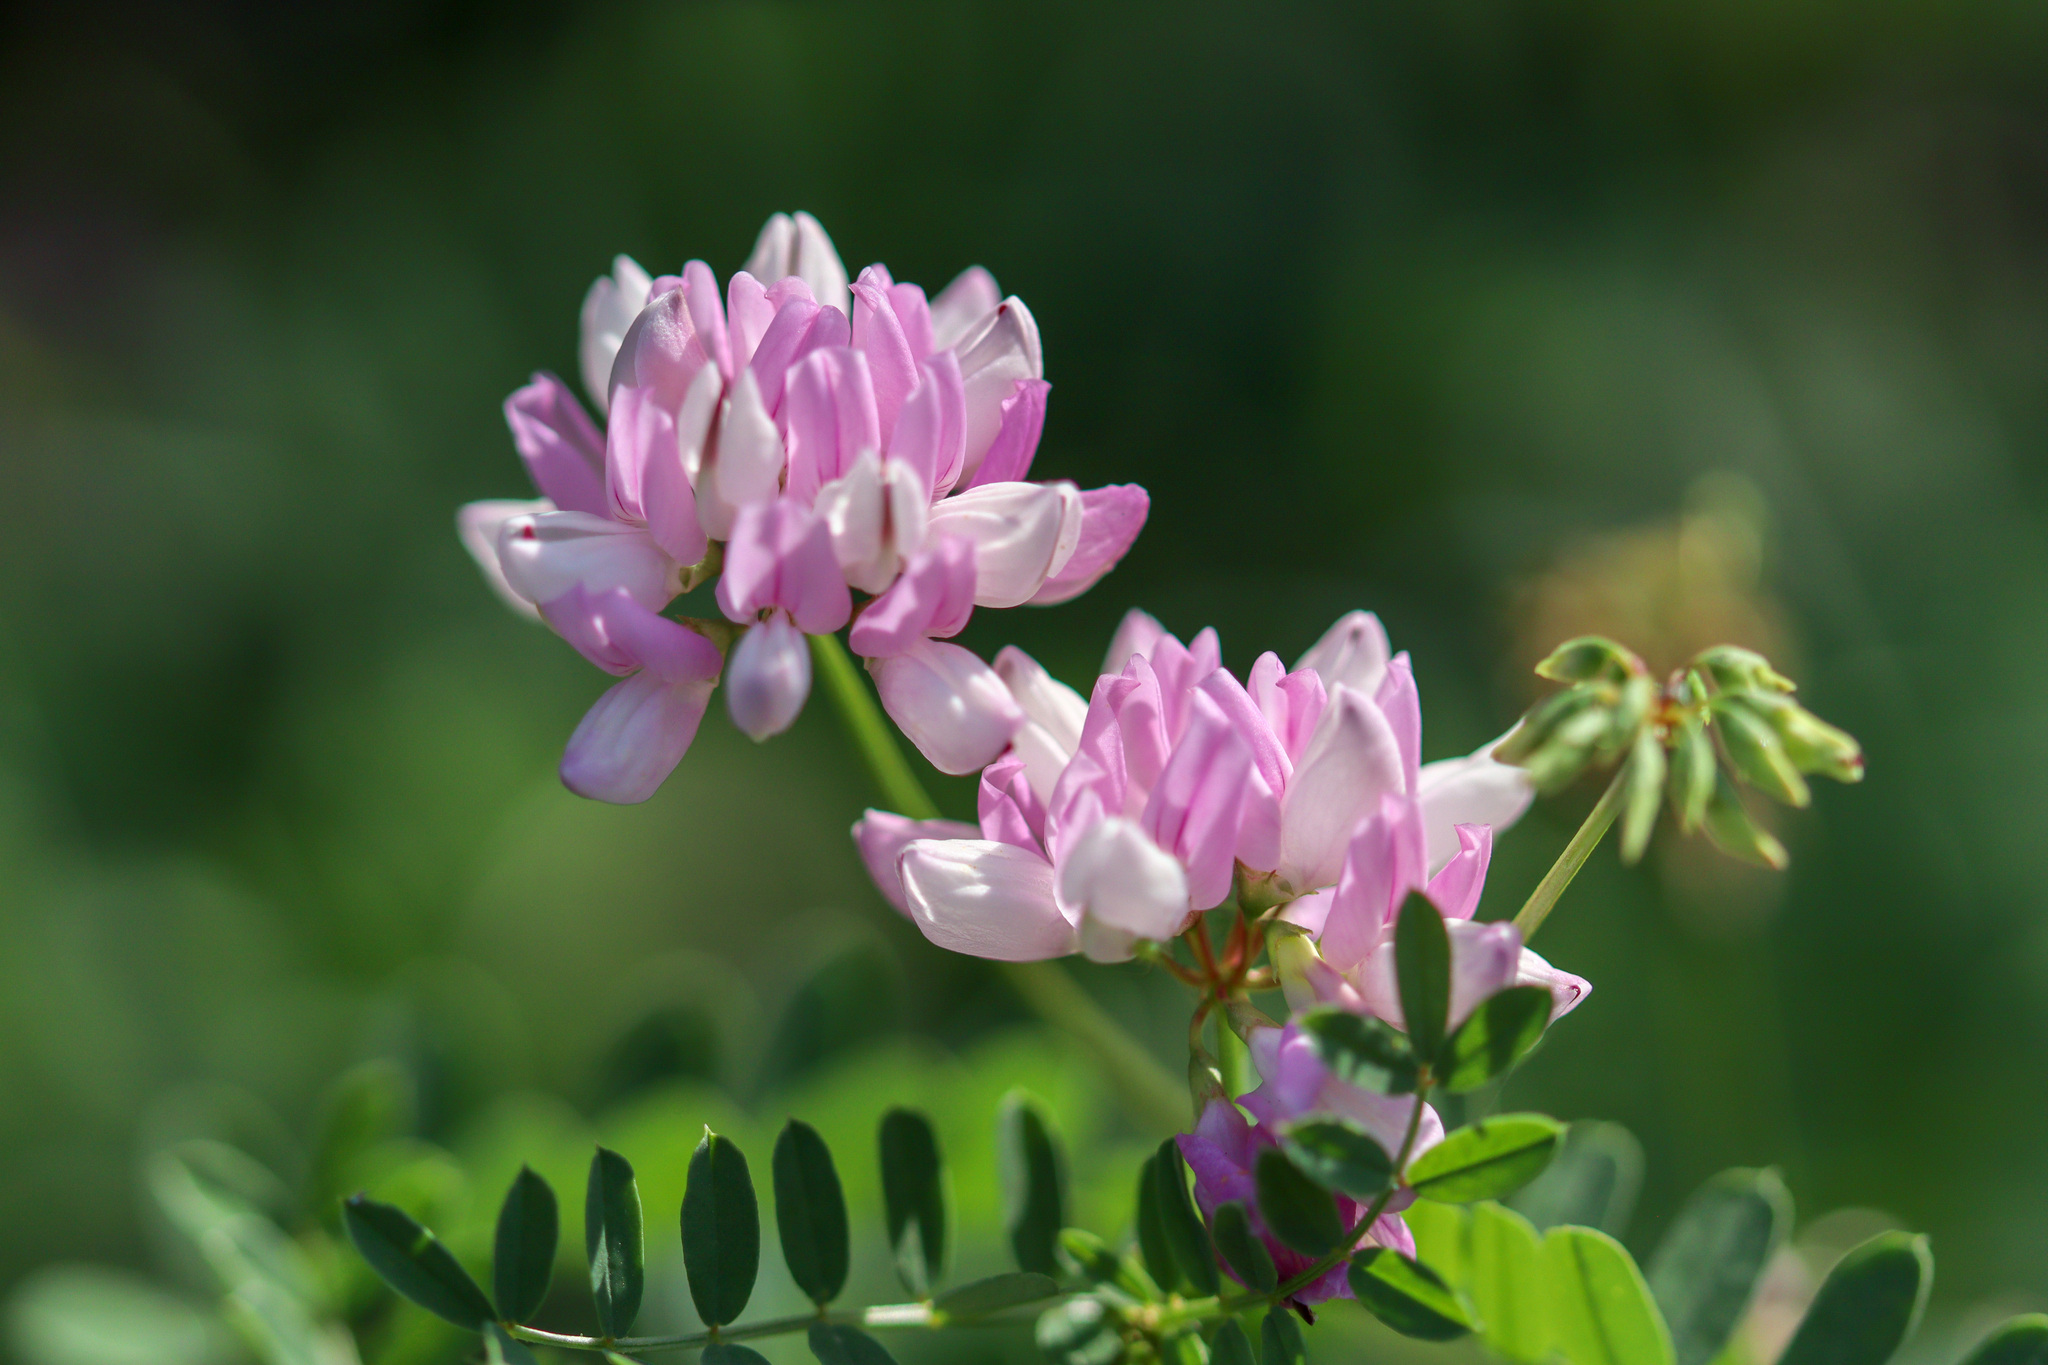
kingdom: Plantae
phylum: Tracheophyta
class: Magnoliopsida
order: Fabales
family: Fabaceae
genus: Coronilla
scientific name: Coronilla varia
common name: Crownvetch
